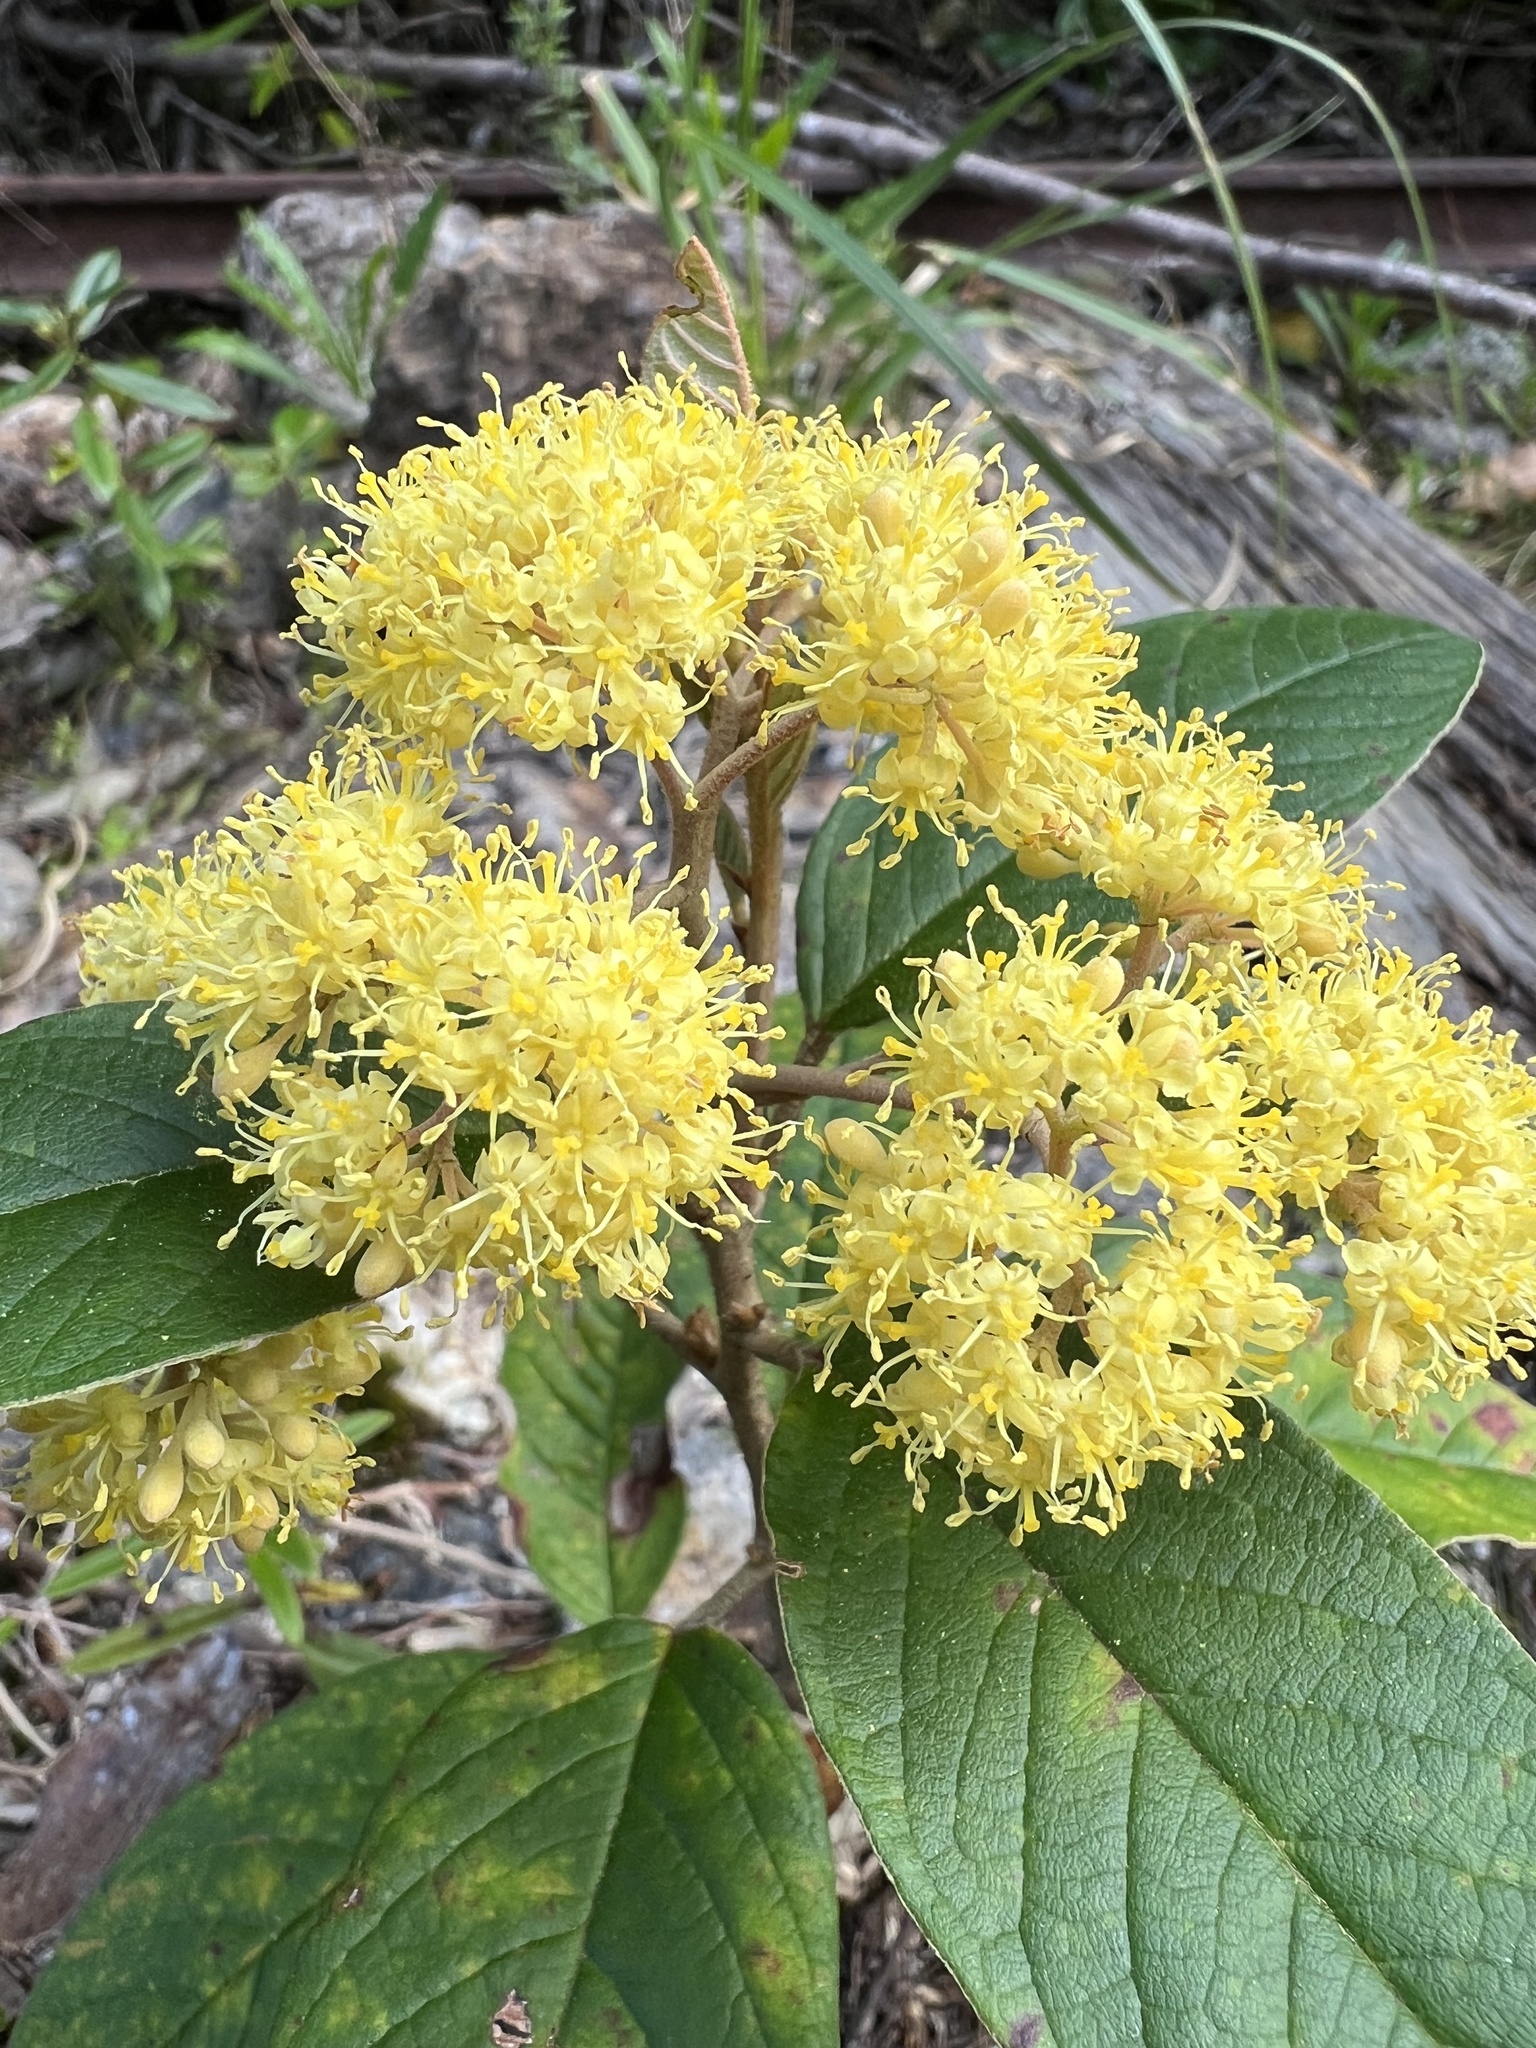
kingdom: Plantae
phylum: Tracheophyta
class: Magnoliopsida
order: Rosales
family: Rhamnaceae
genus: Pomaderris
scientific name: Pomaderris kumeraho
